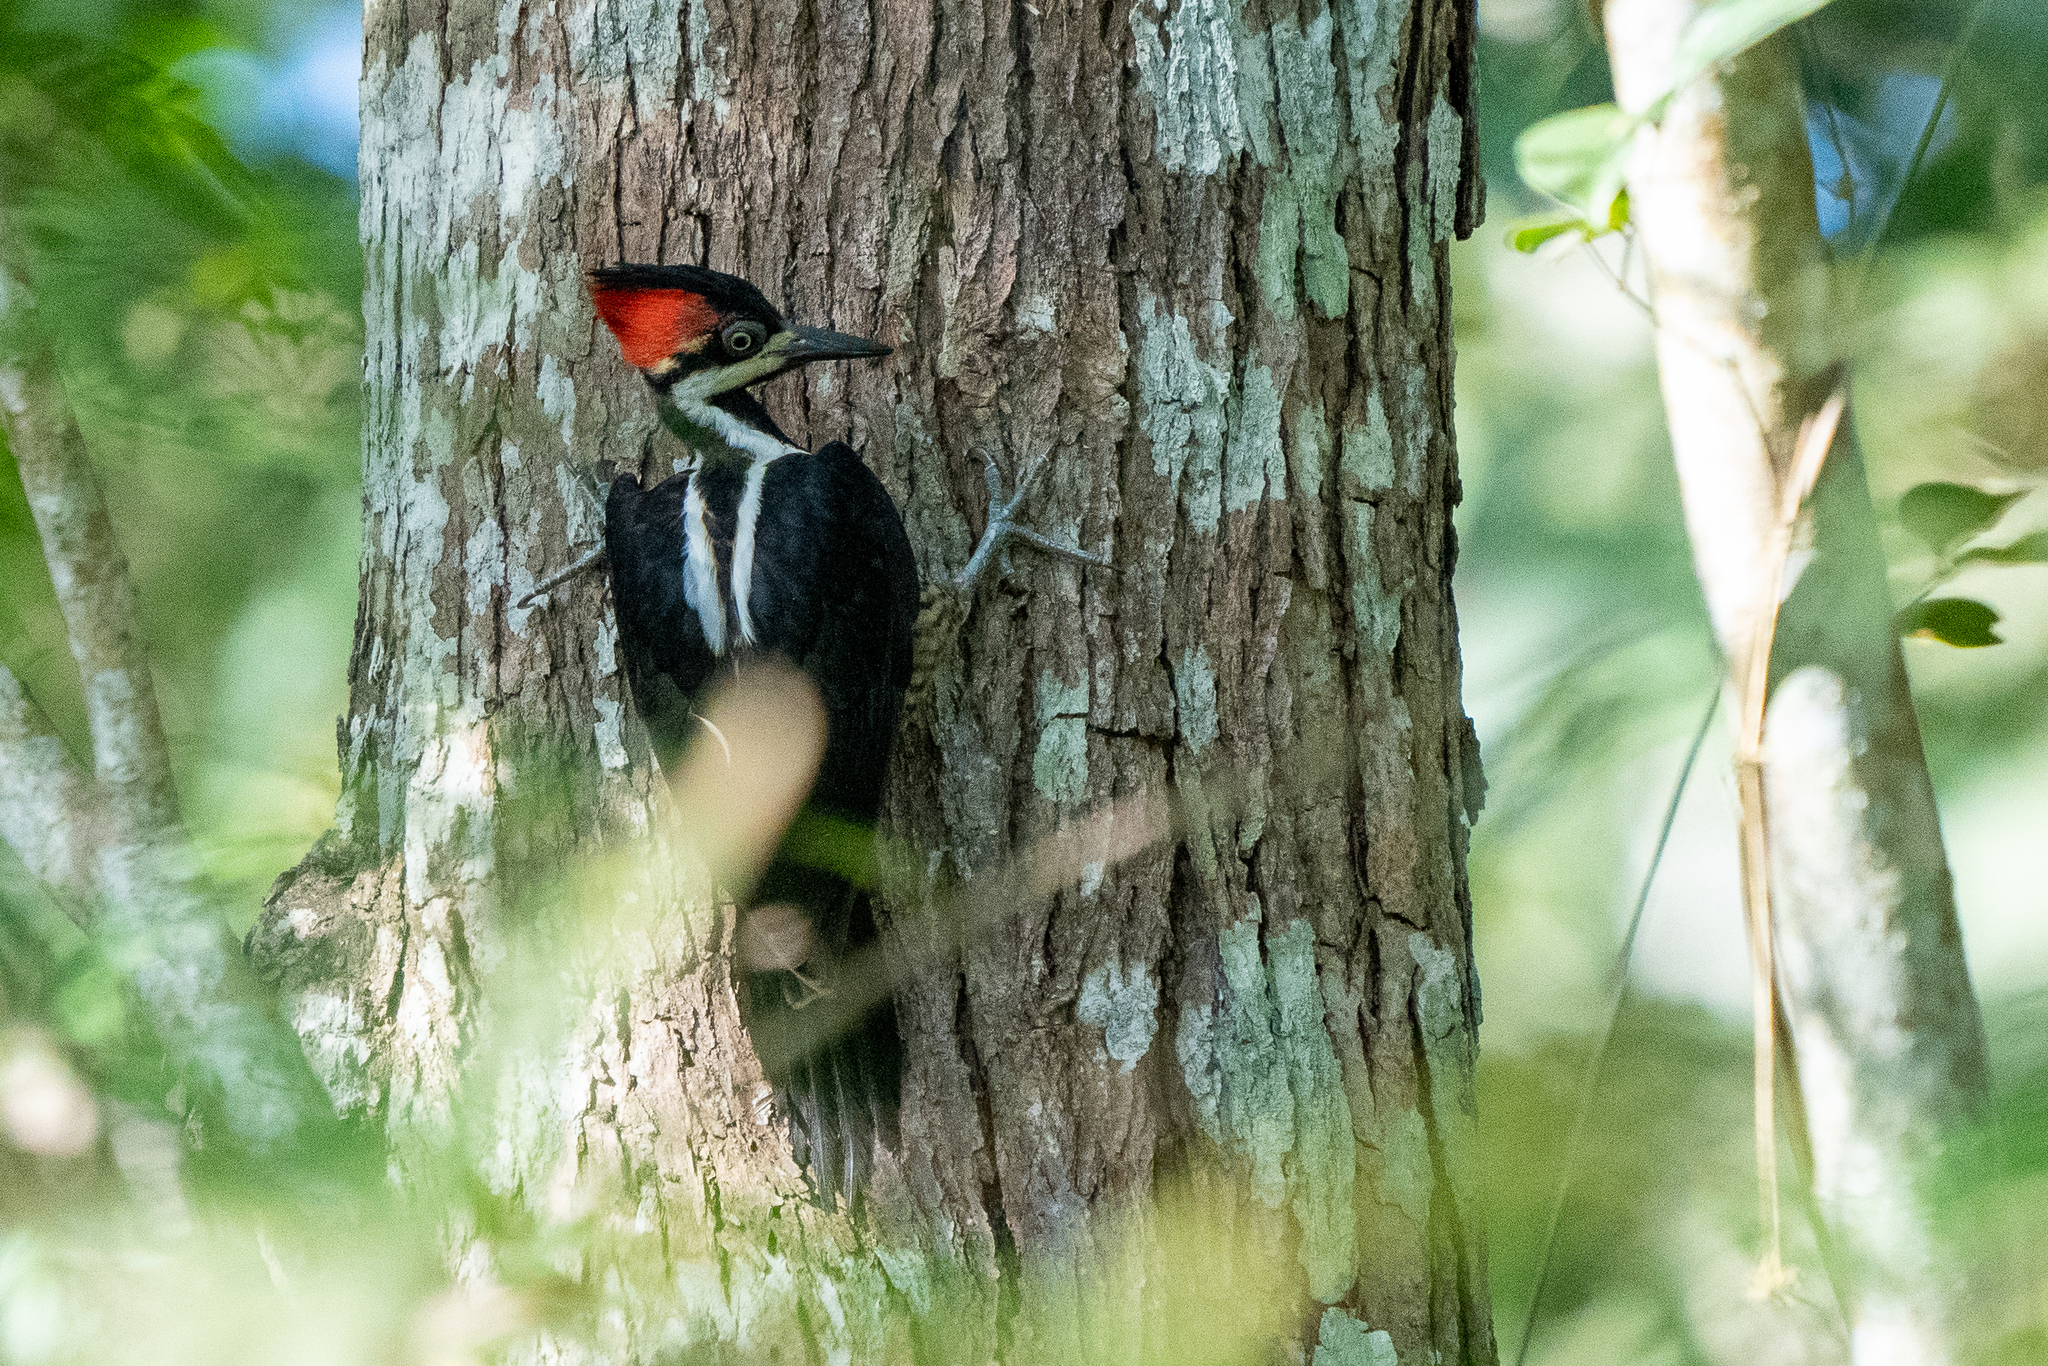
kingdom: Animalia
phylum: Chordata
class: Aves
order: Piciformes
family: Picidae
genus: Campephilus
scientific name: Campephilus melanoleucos
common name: Crimson-crested woodpecker
